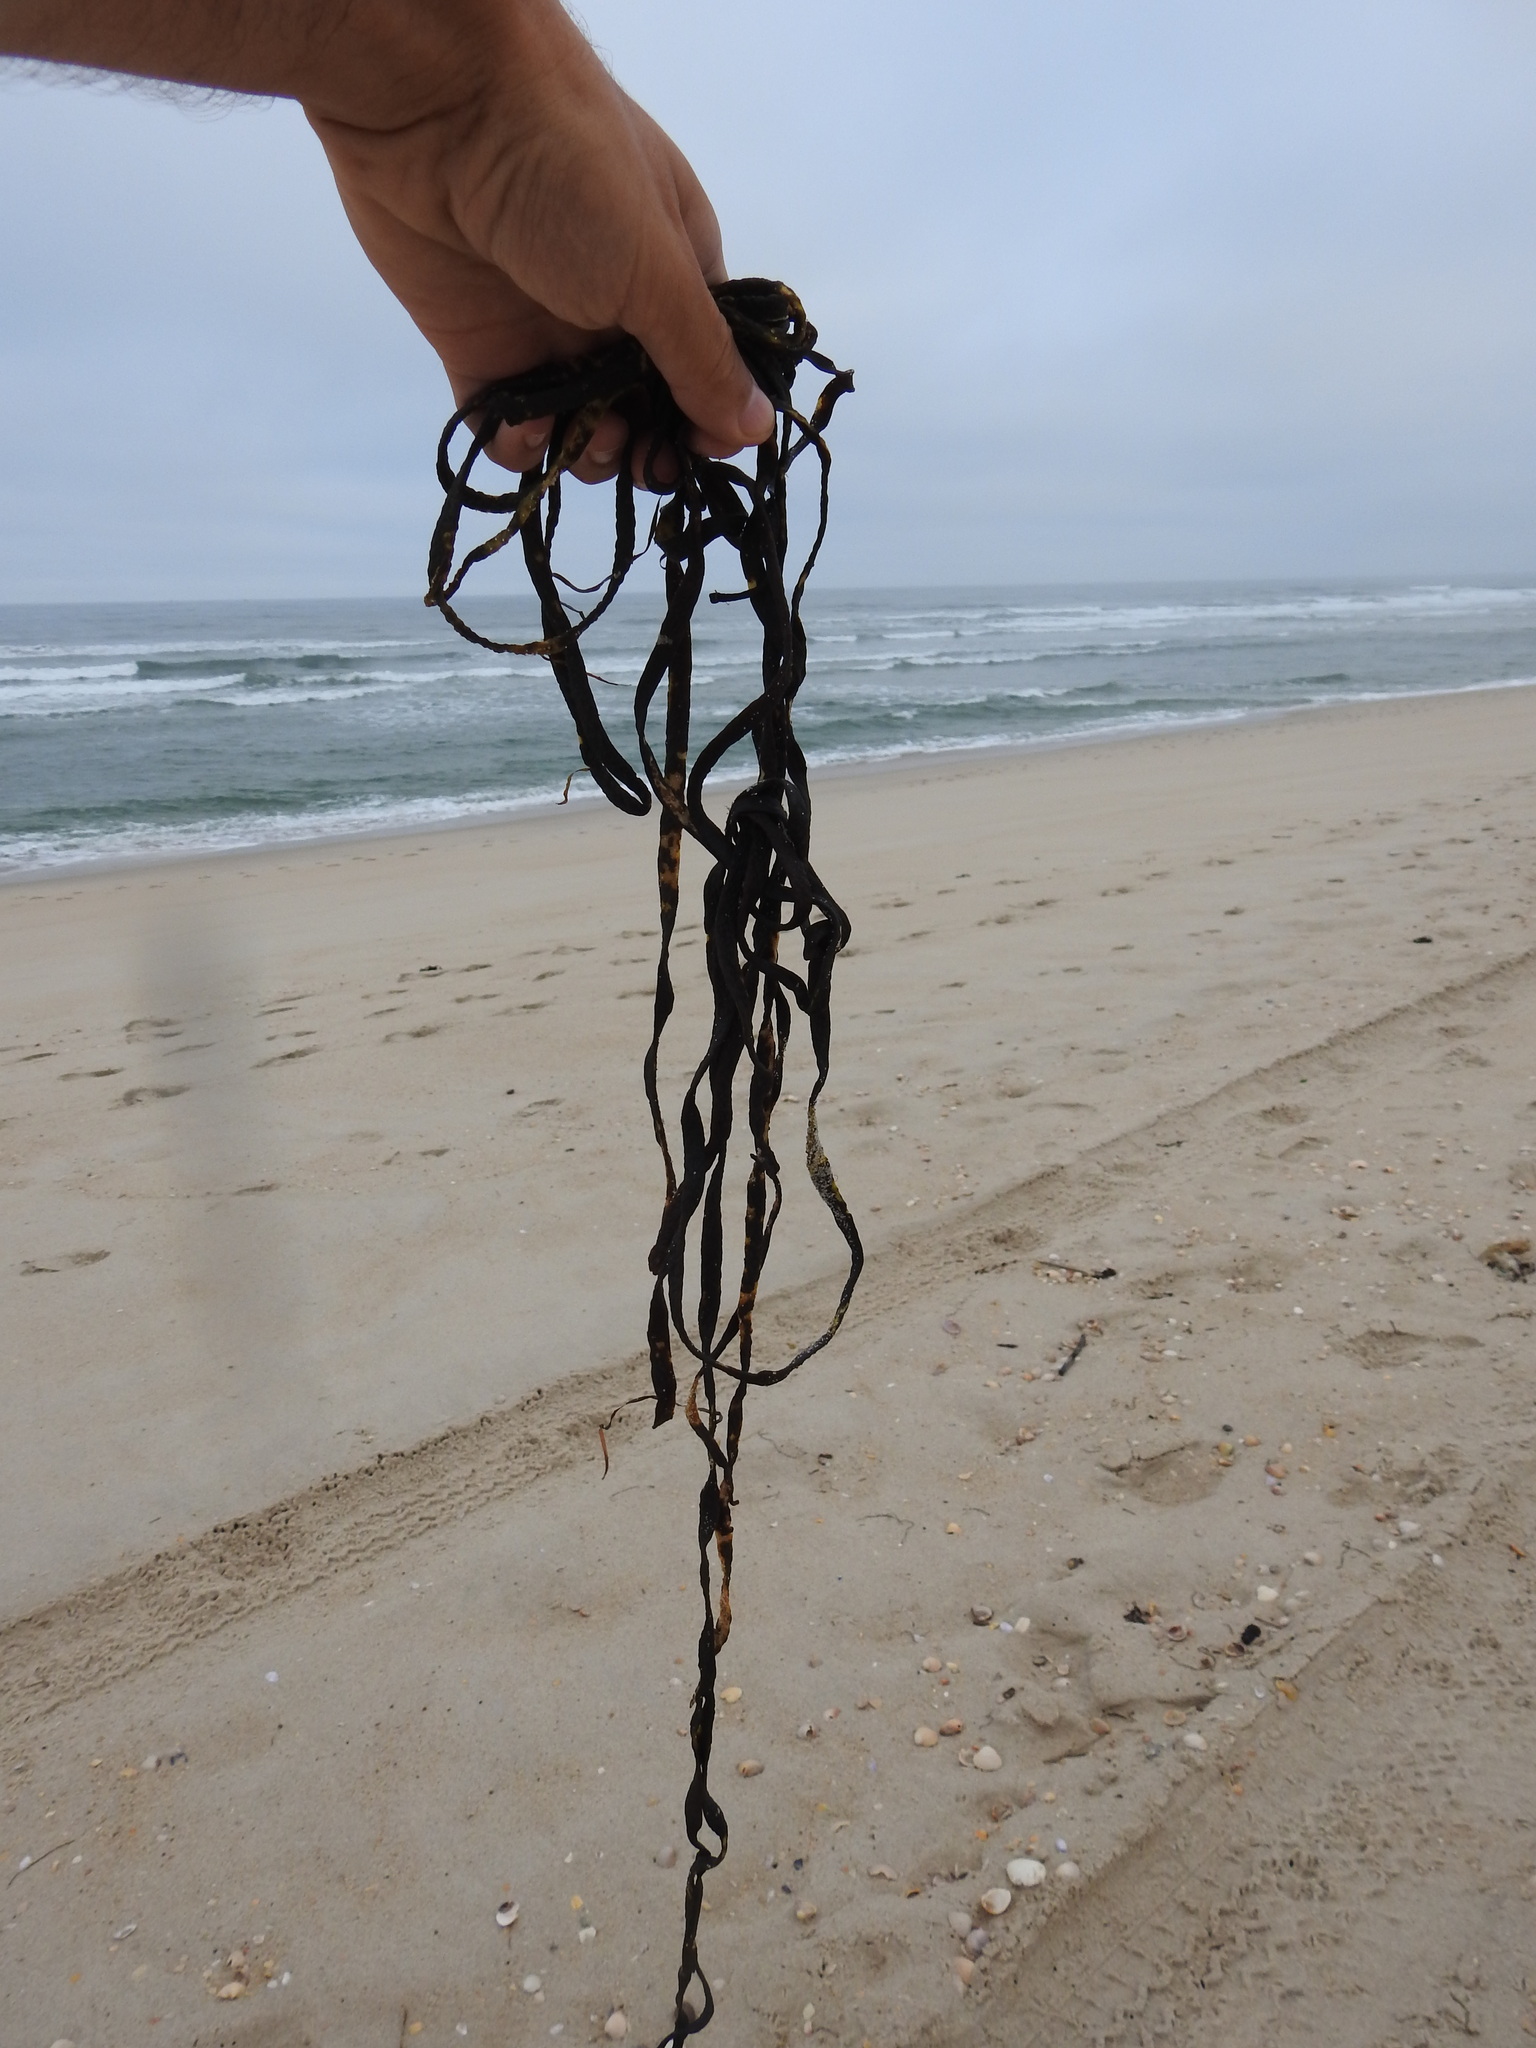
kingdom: Chromista
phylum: Ochrophyta
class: Phaeophyceae
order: Fucales
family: Himanthaliaceae
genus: Himanthalia
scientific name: Himanthalia elongata
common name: Sea-thong
